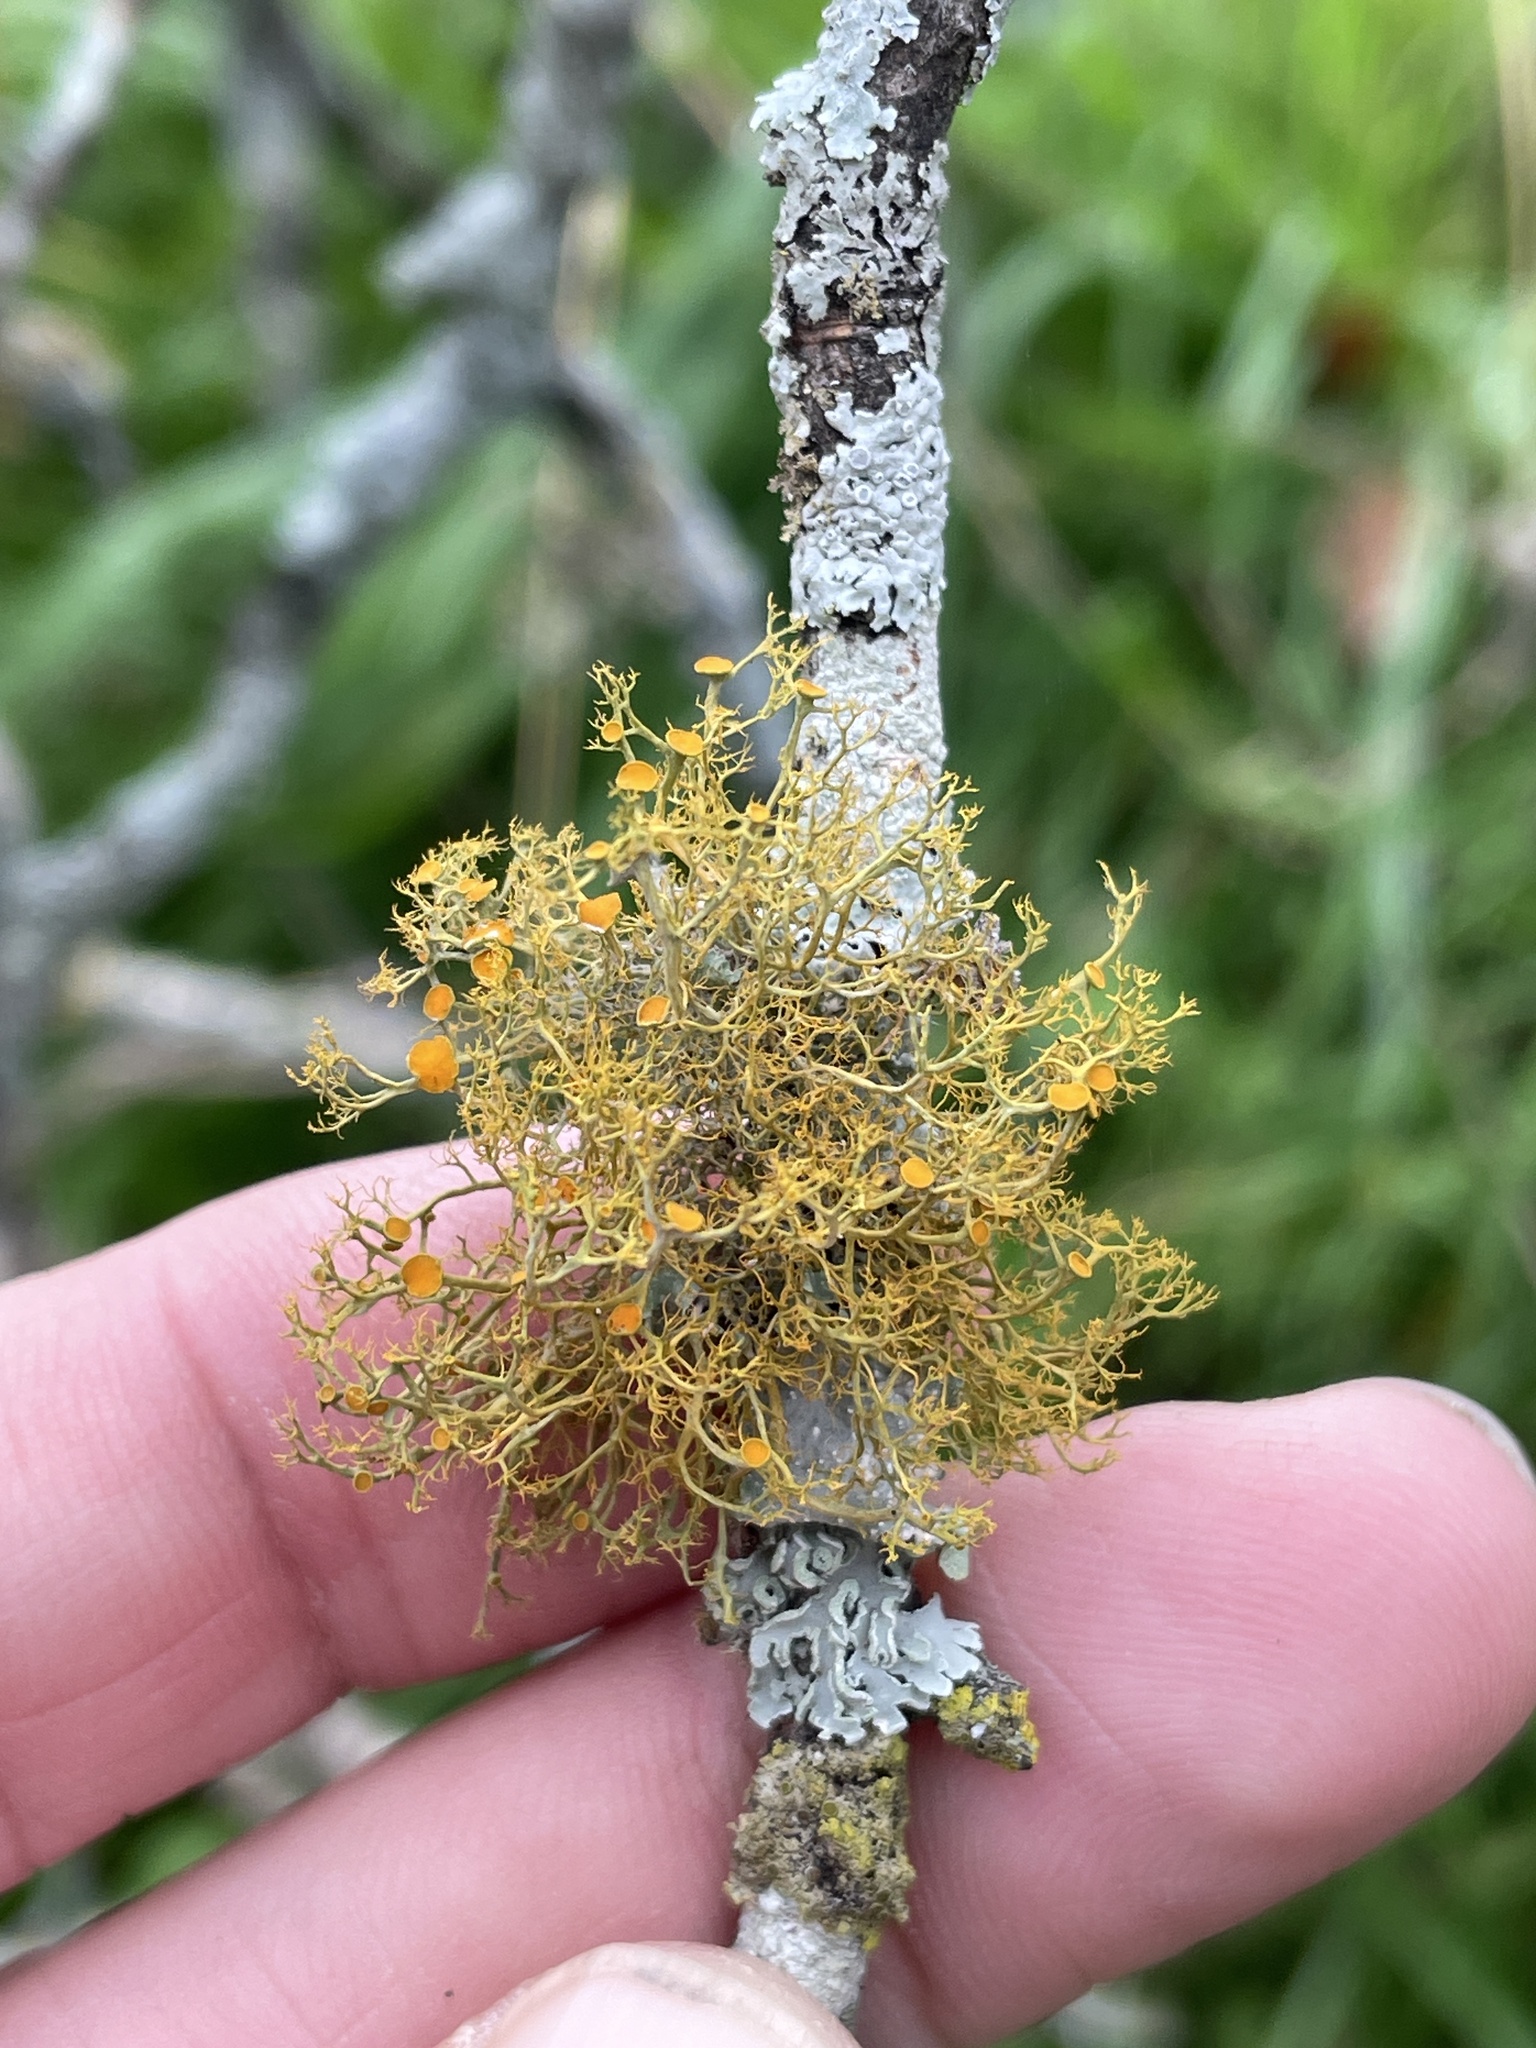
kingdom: Fungi
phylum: Ascomycota
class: Lecanoromycetes
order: Teloschistales
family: Teloschistaceae
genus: Teloschistes
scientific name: Teloschistes exilis
